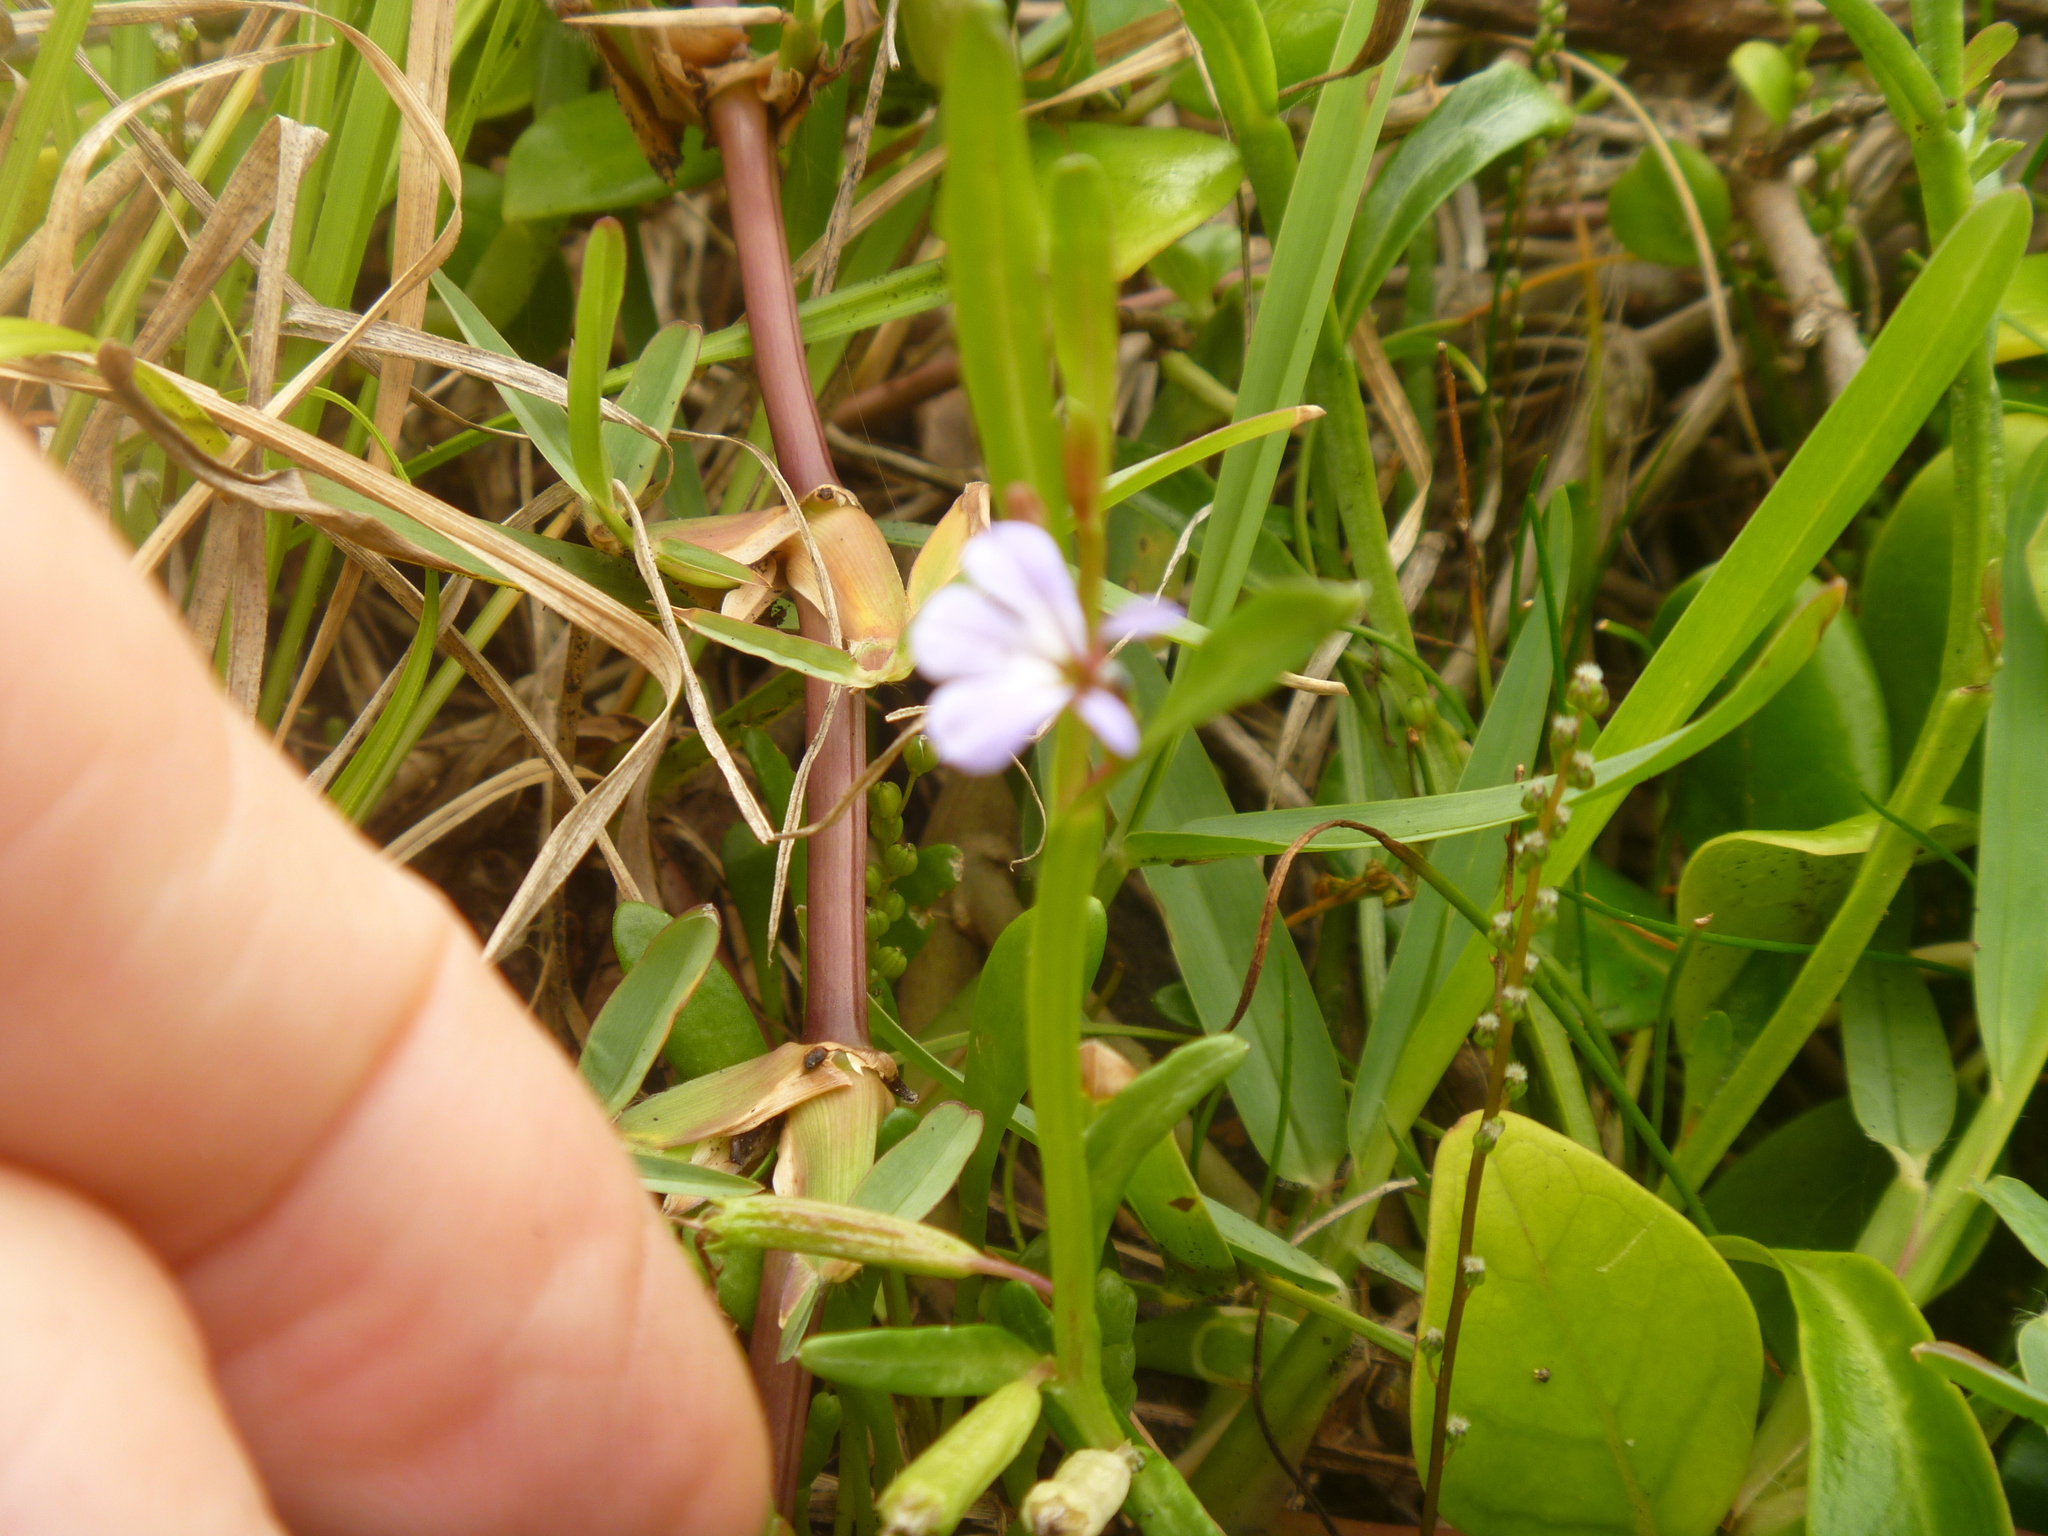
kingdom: Plantae
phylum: Tracheophyta
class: Magnoliopsida
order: Asterales
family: Campanulaceae
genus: Lobelia
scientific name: Lobelia anceps
